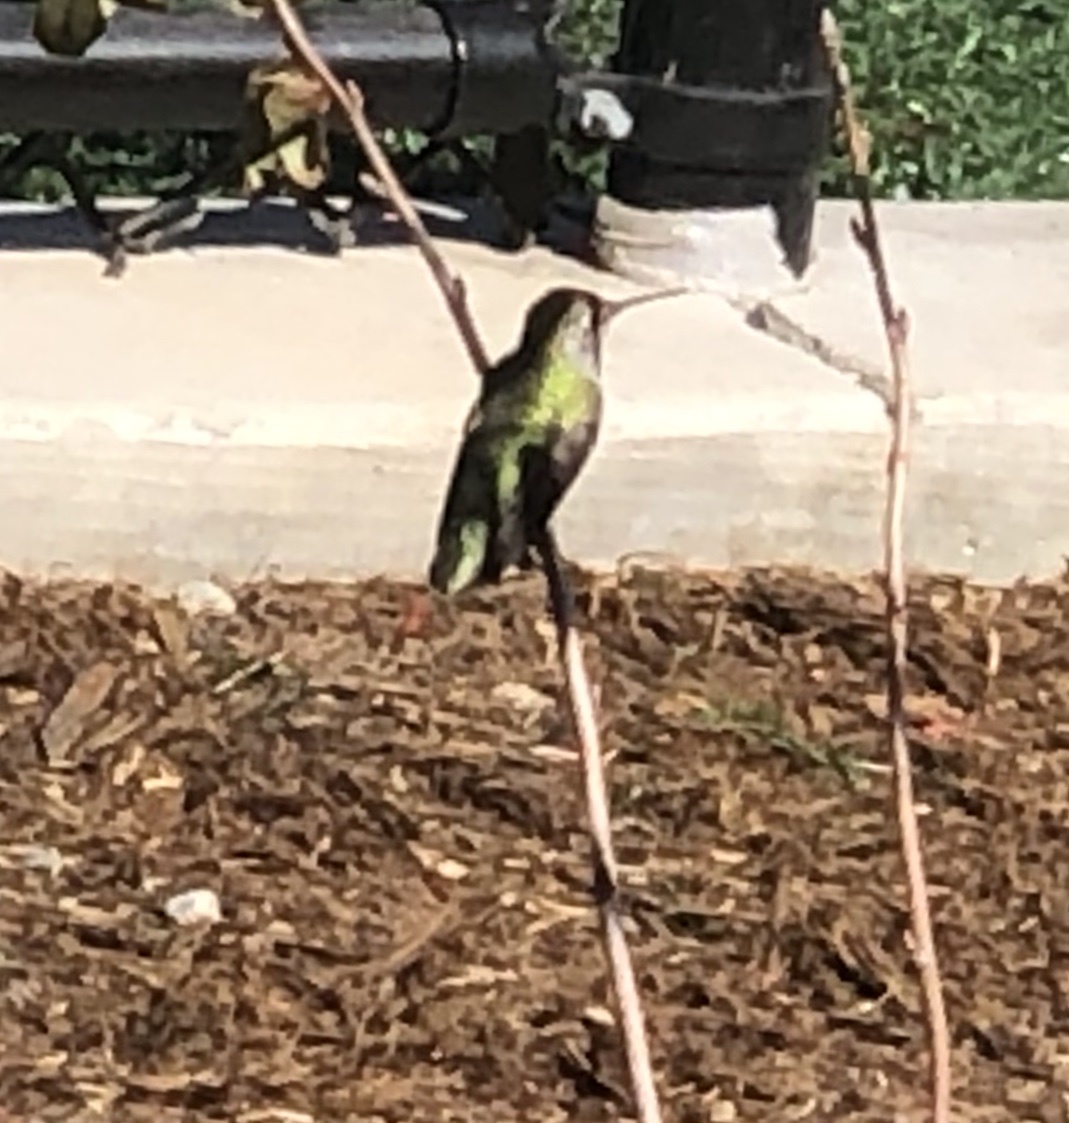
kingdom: Animalia
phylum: Chordata
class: Aves
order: Apodiformes
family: Trochilidae
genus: Calypte
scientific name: Calypte anna
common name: Anna's hummingbird
